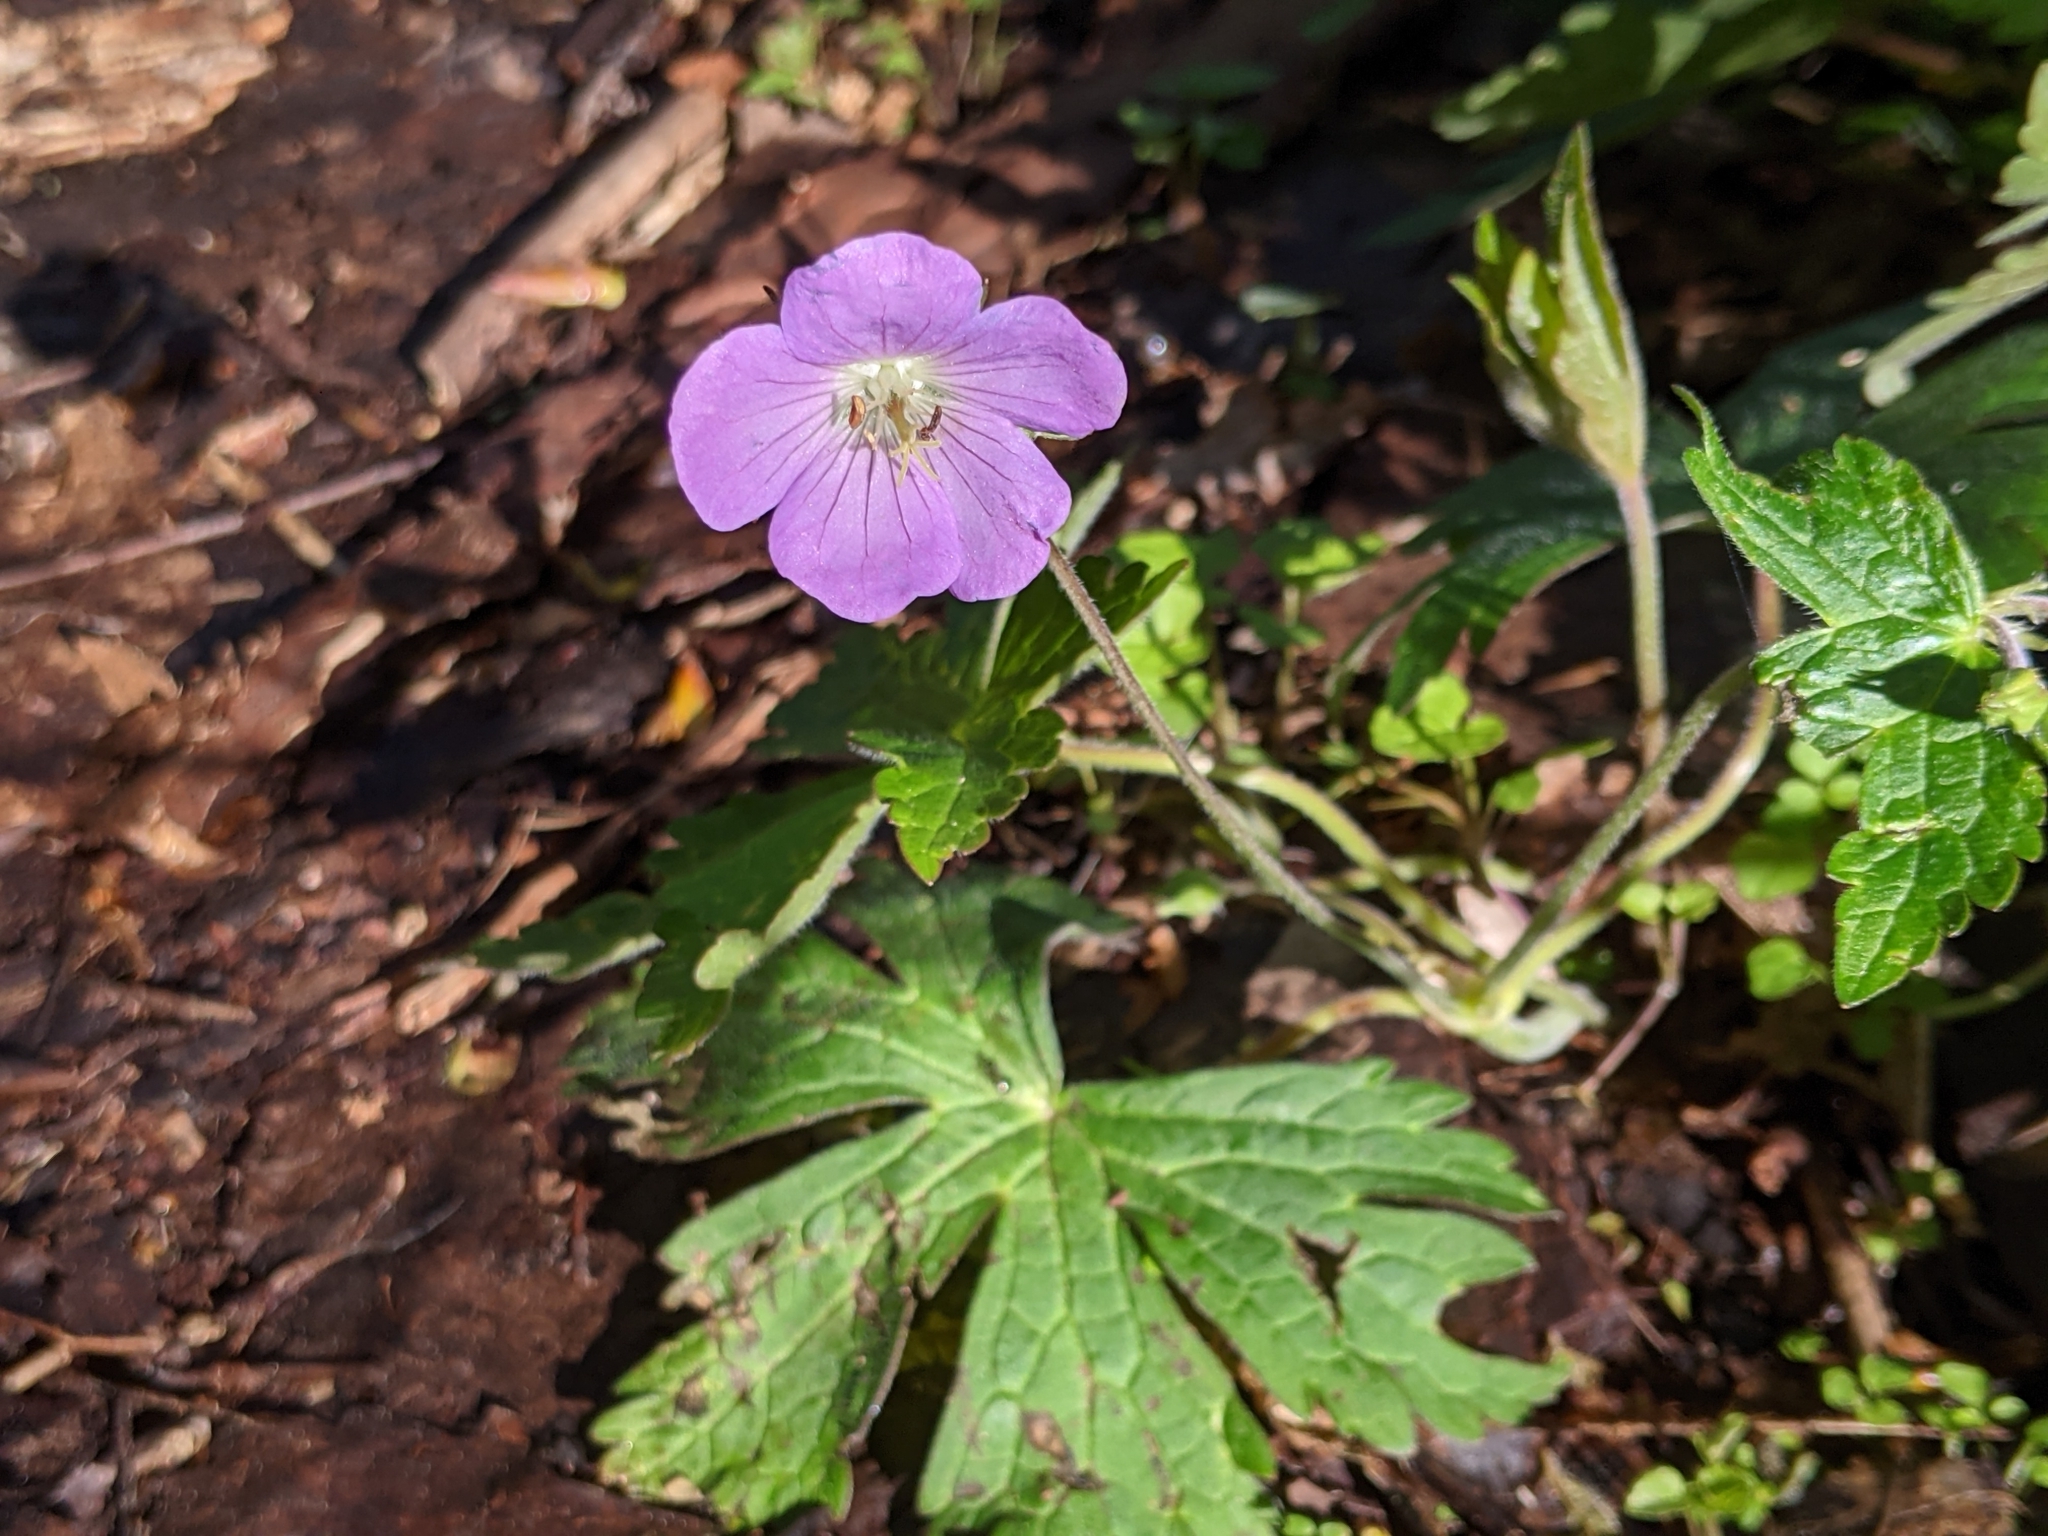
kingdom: Plantae
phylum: Tracheophyta
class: Magnoliopsida
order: Geraniales
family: Geraniaceae
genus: Geranium
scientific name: Geranium maculatum
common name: Spotted geranium
